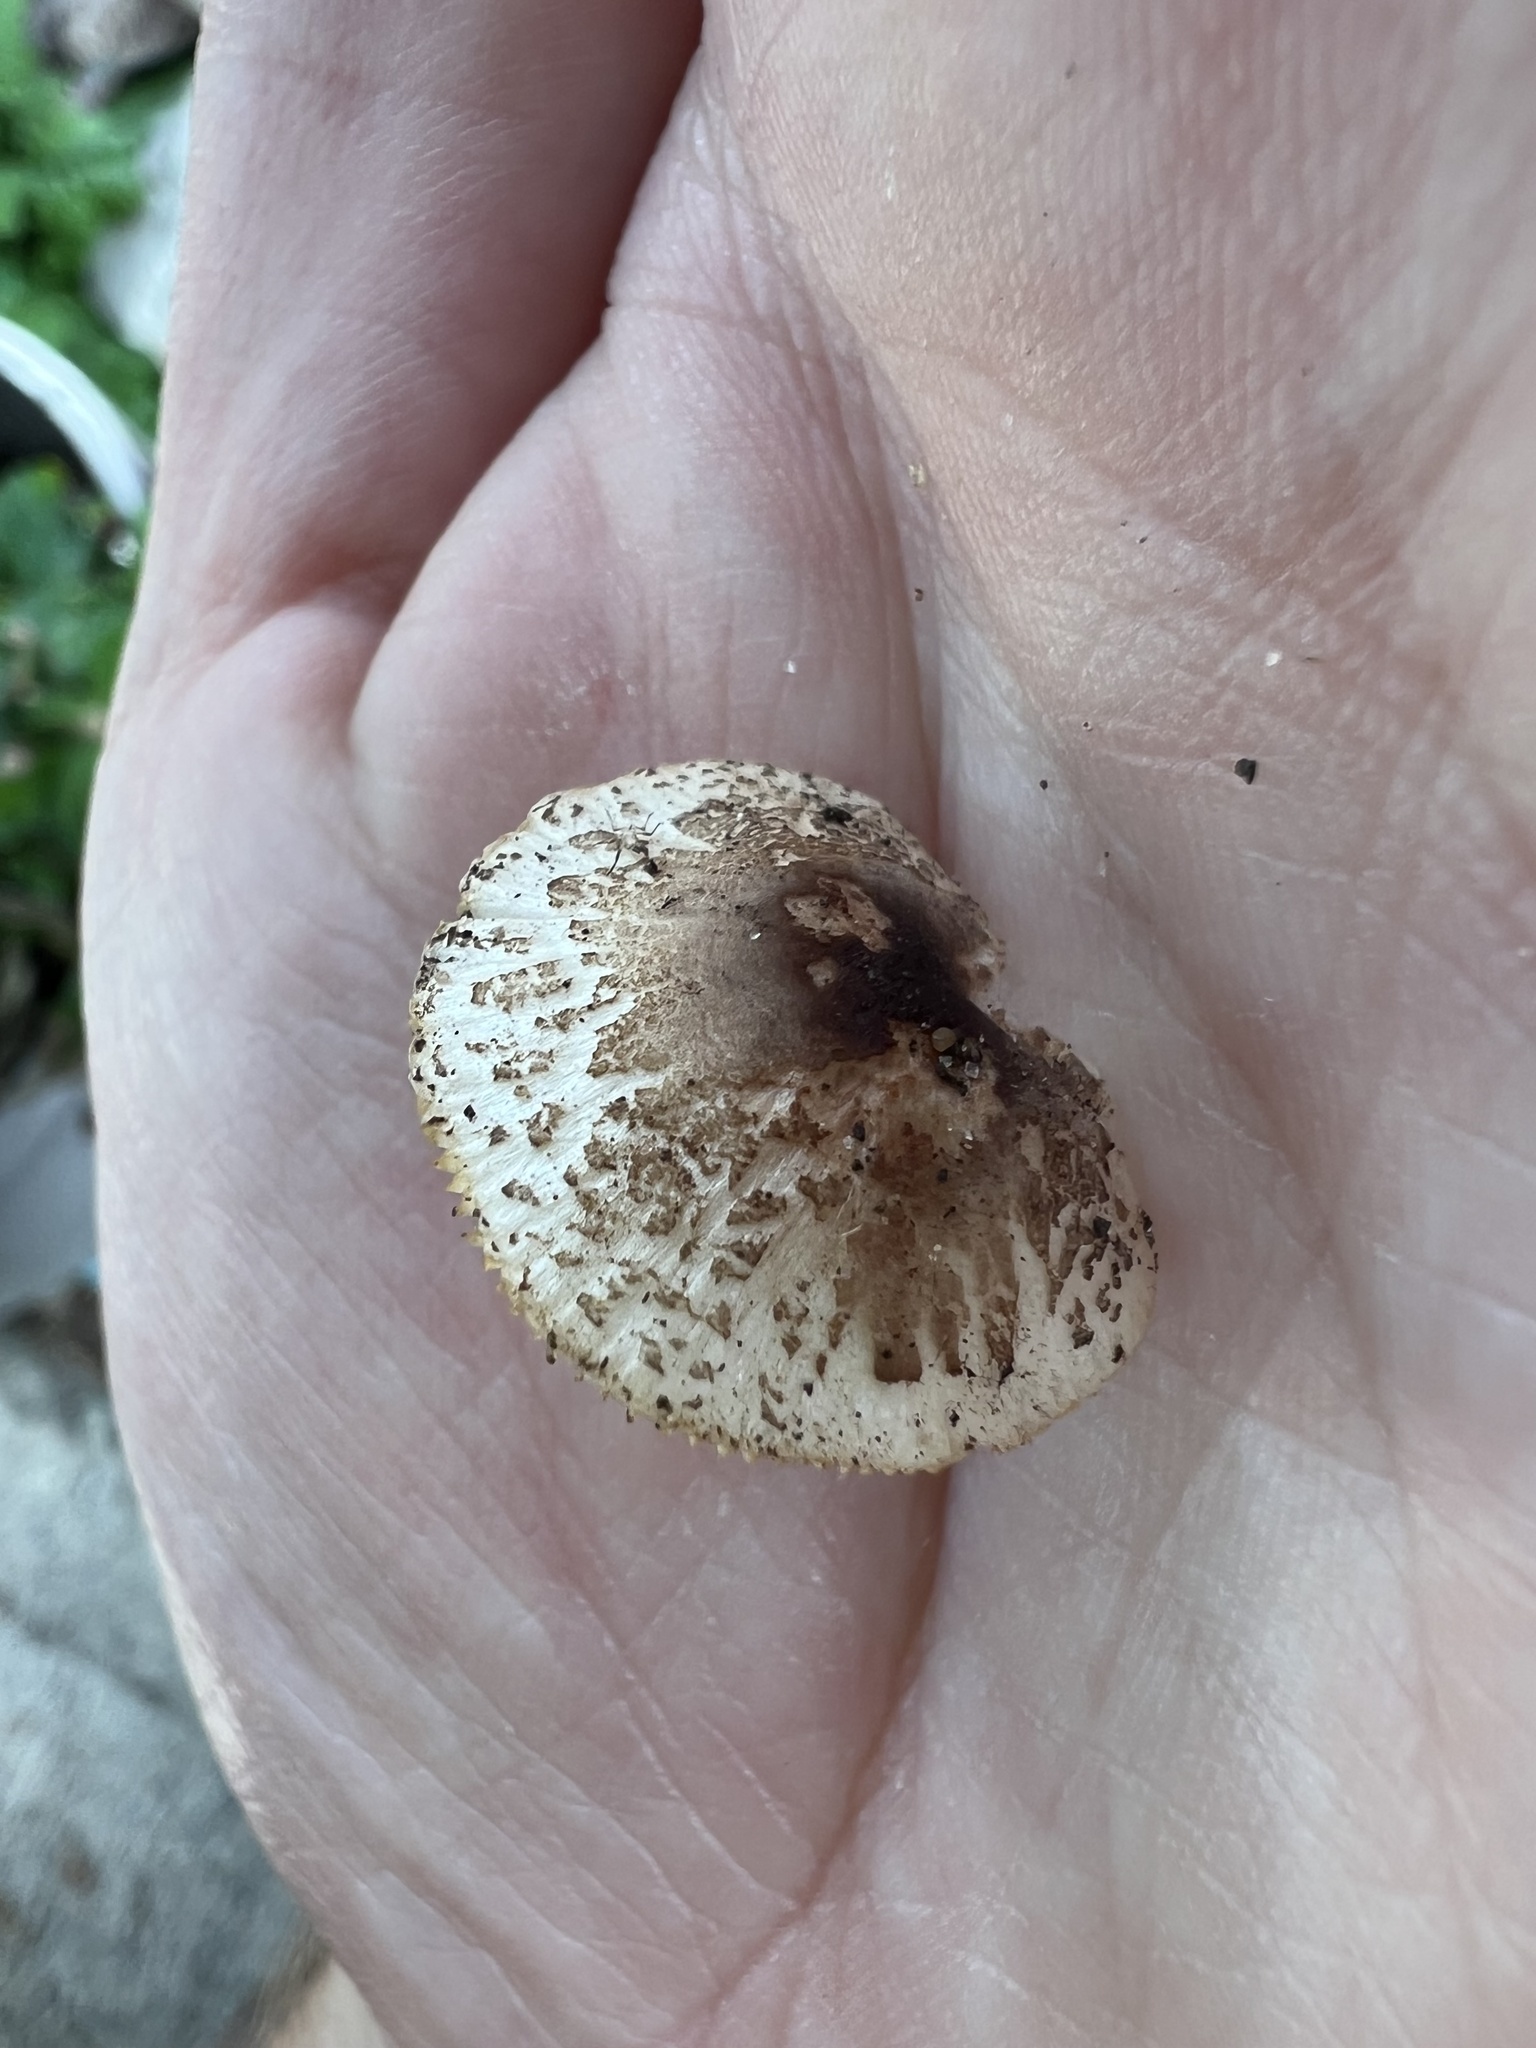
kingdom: Fungi
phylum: Basidiomycota
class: Agaricomycetes
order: Agaricales
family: Agaricaceae
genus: Lepiota
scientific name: Lepiota lilacea
